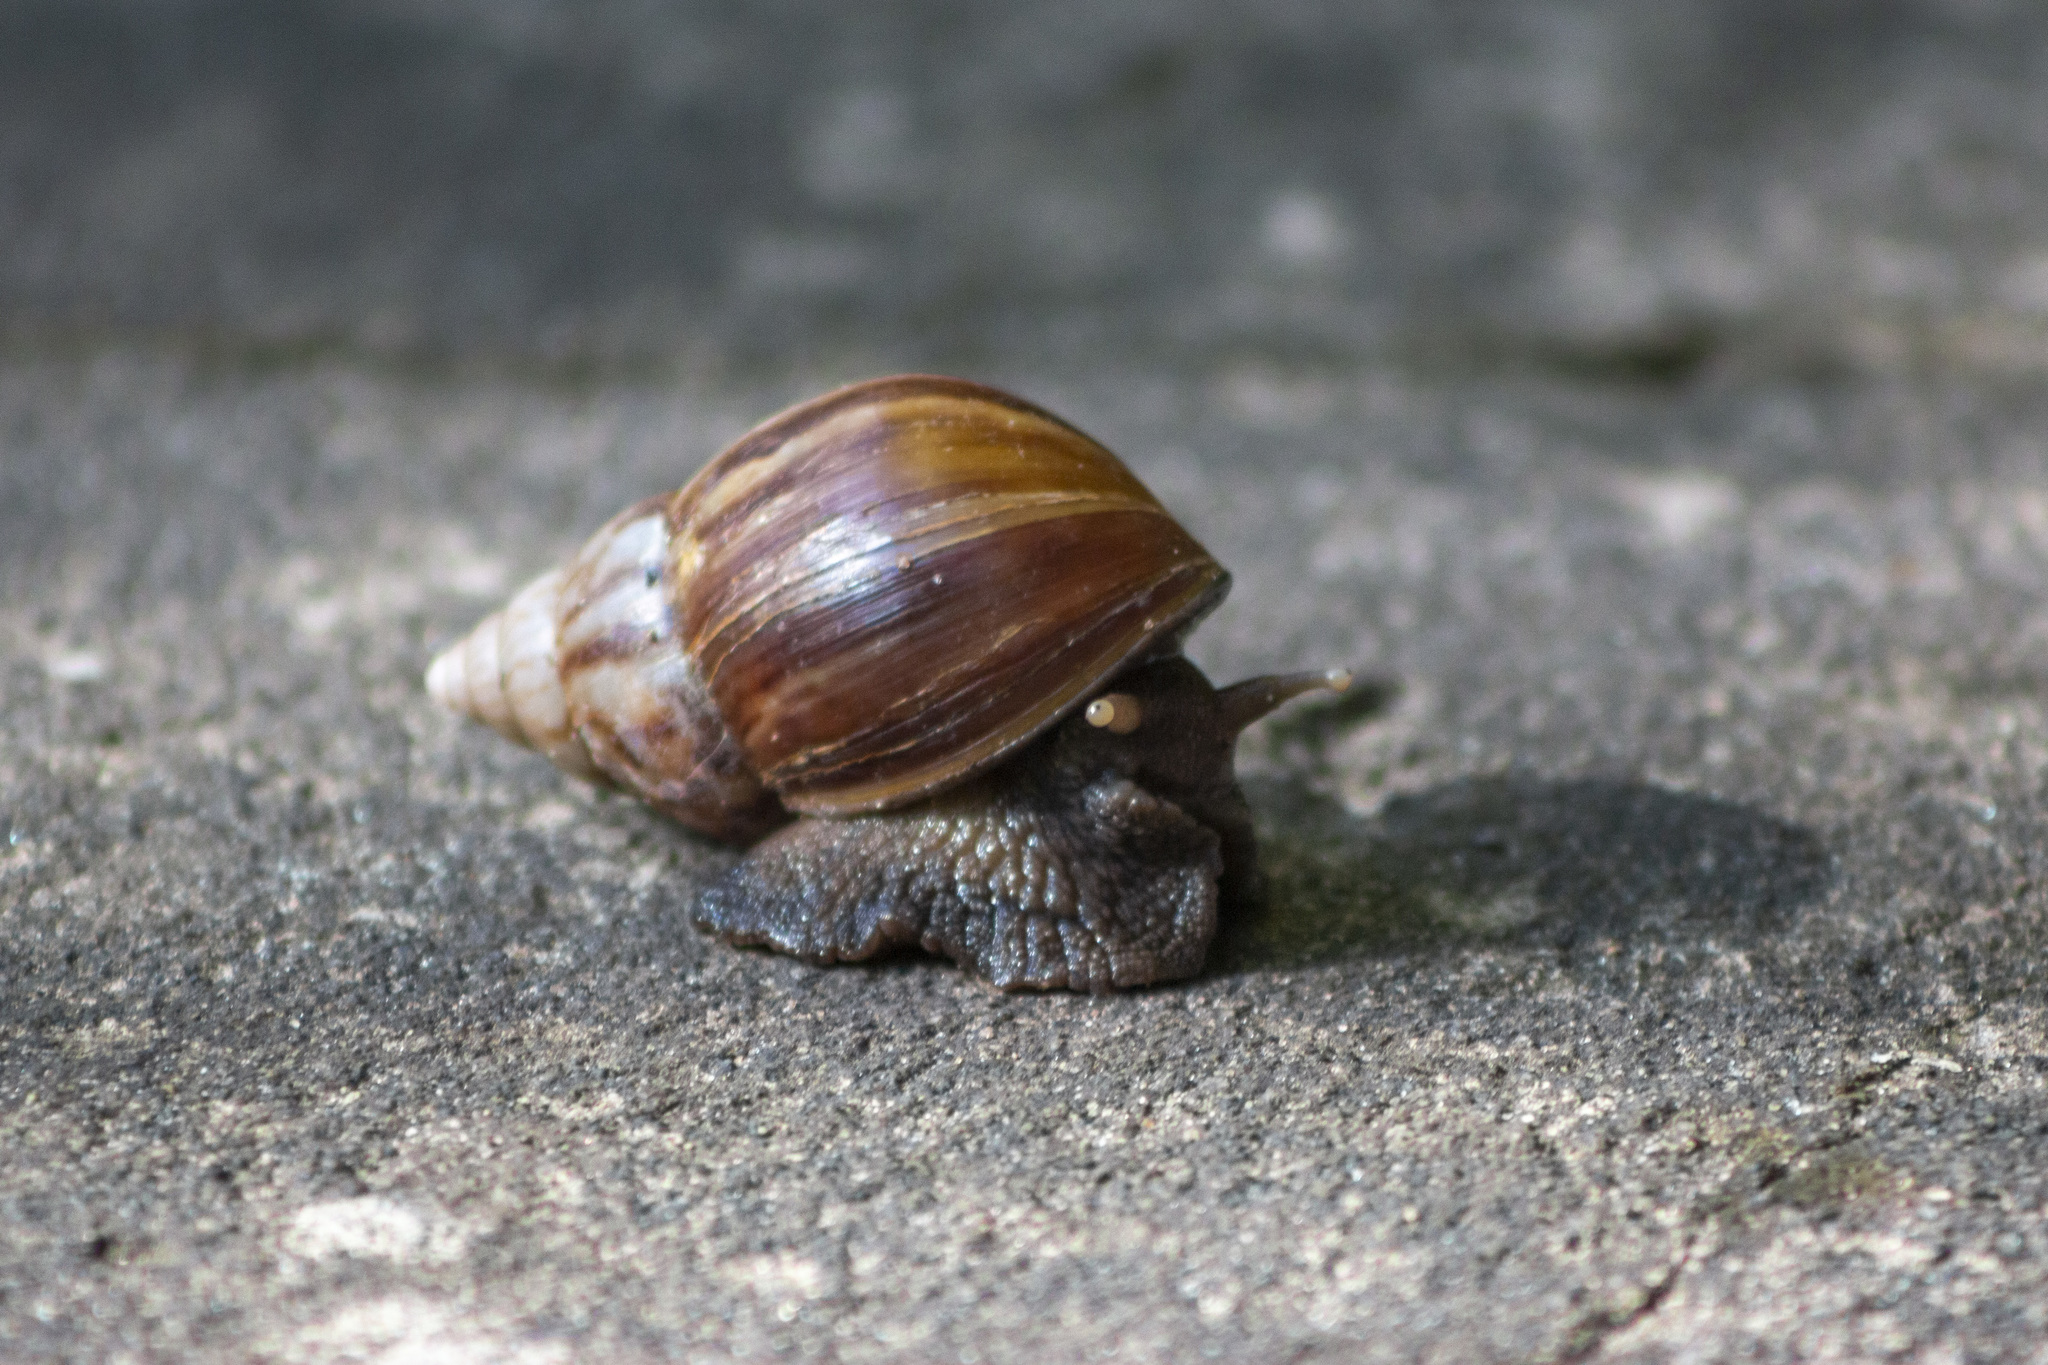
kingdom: Animalia
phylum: Mollusca
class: Gastropoda
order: Stylommatophora
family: Achatinidae
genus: Lissachatina
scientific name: Lissachatina fulica
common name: Giant african snail
